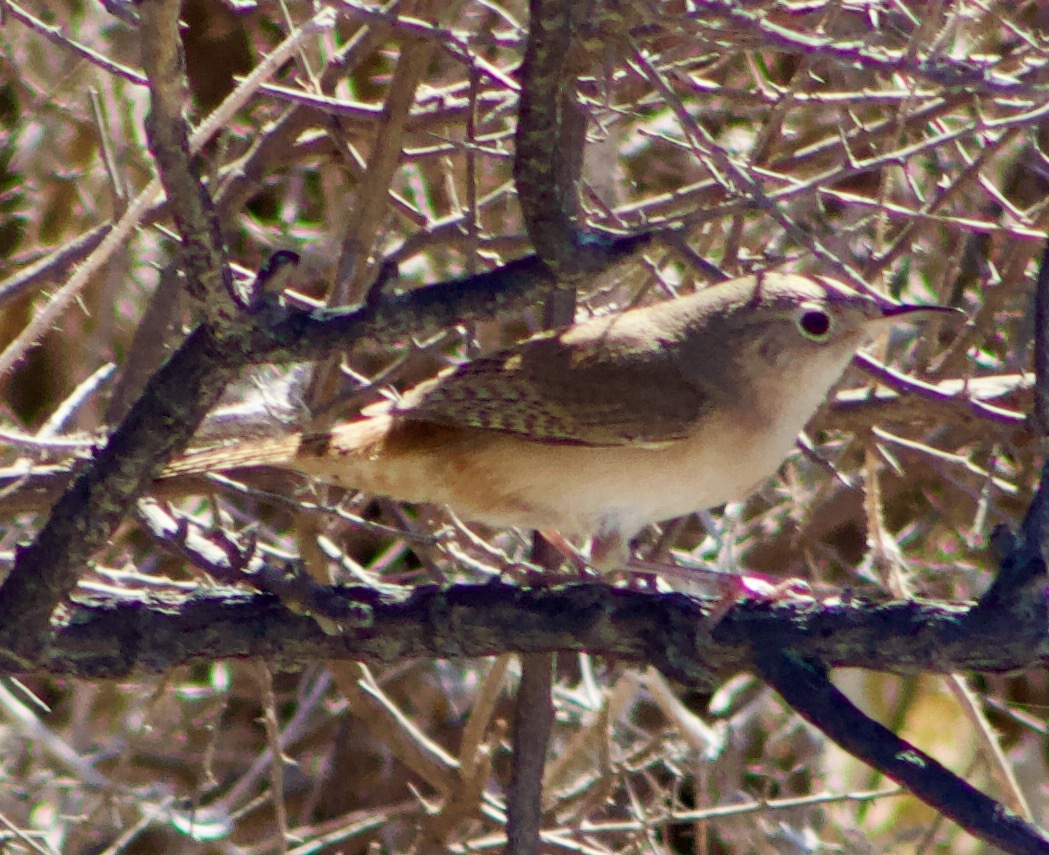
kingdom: Animalia
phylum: Chordata
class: Aves
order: Passeriformes
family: Troglodytidae
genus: Troglodytes
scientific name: Troglodytes aedon
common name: House wren
